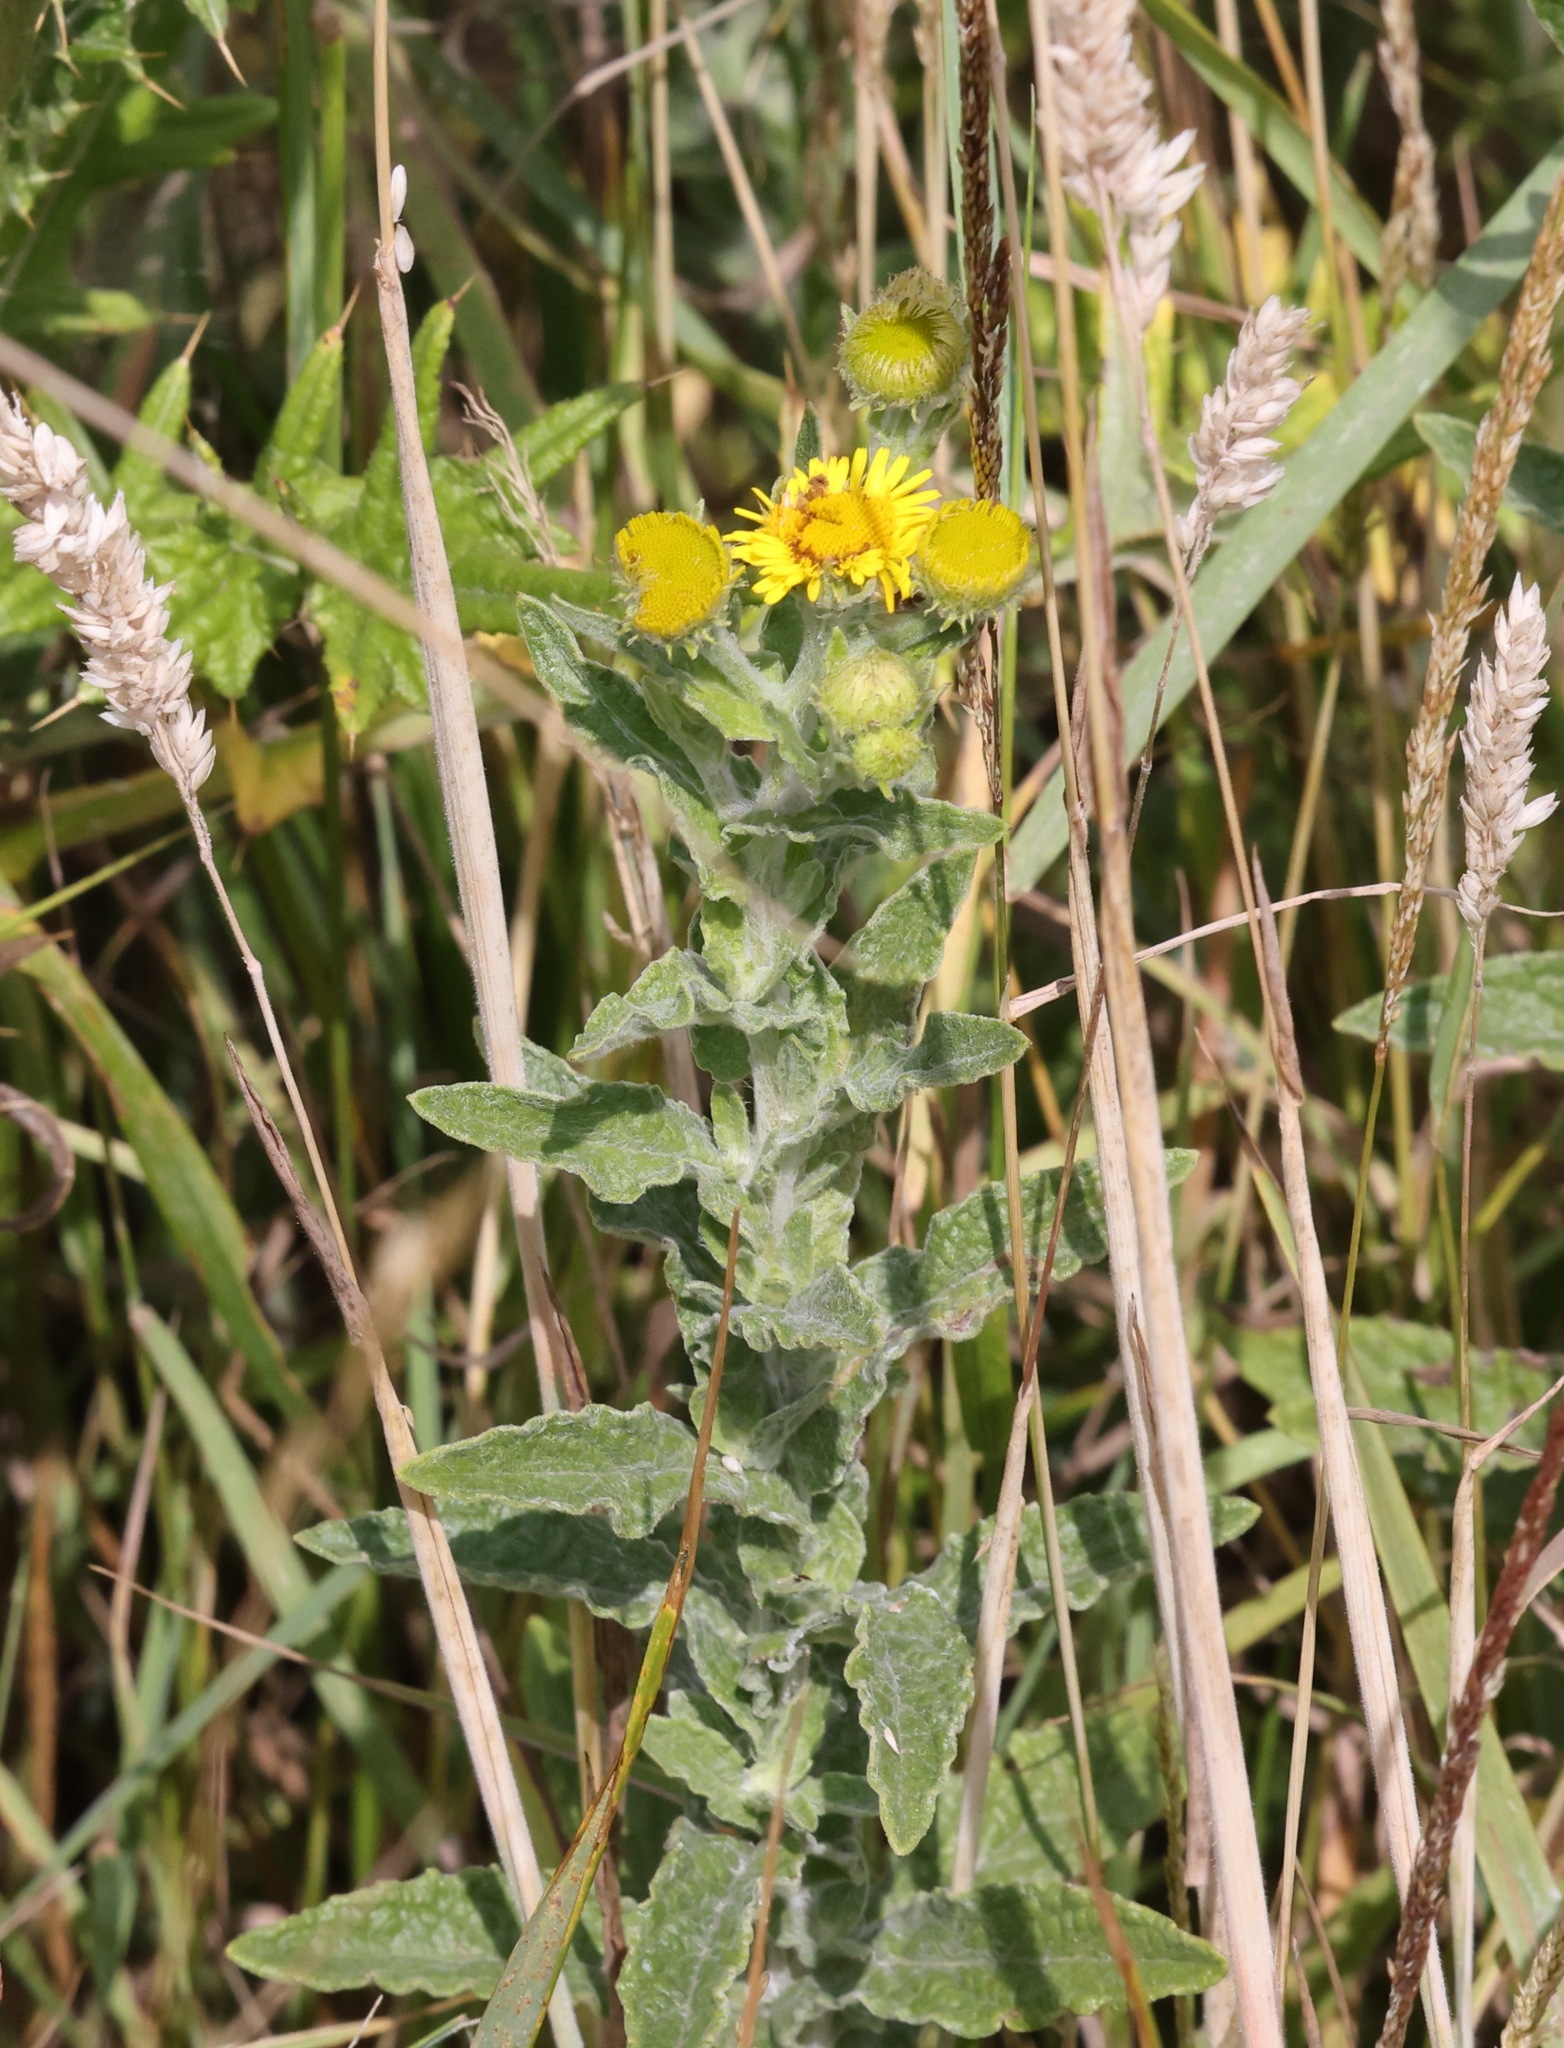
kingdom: Plantae
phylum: Tracheophyta
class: Magnoliopsida
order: Asterales
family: Asteraceae
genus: Pulicaria
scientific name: Pulicaria dysenterica
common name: Common fleabane
